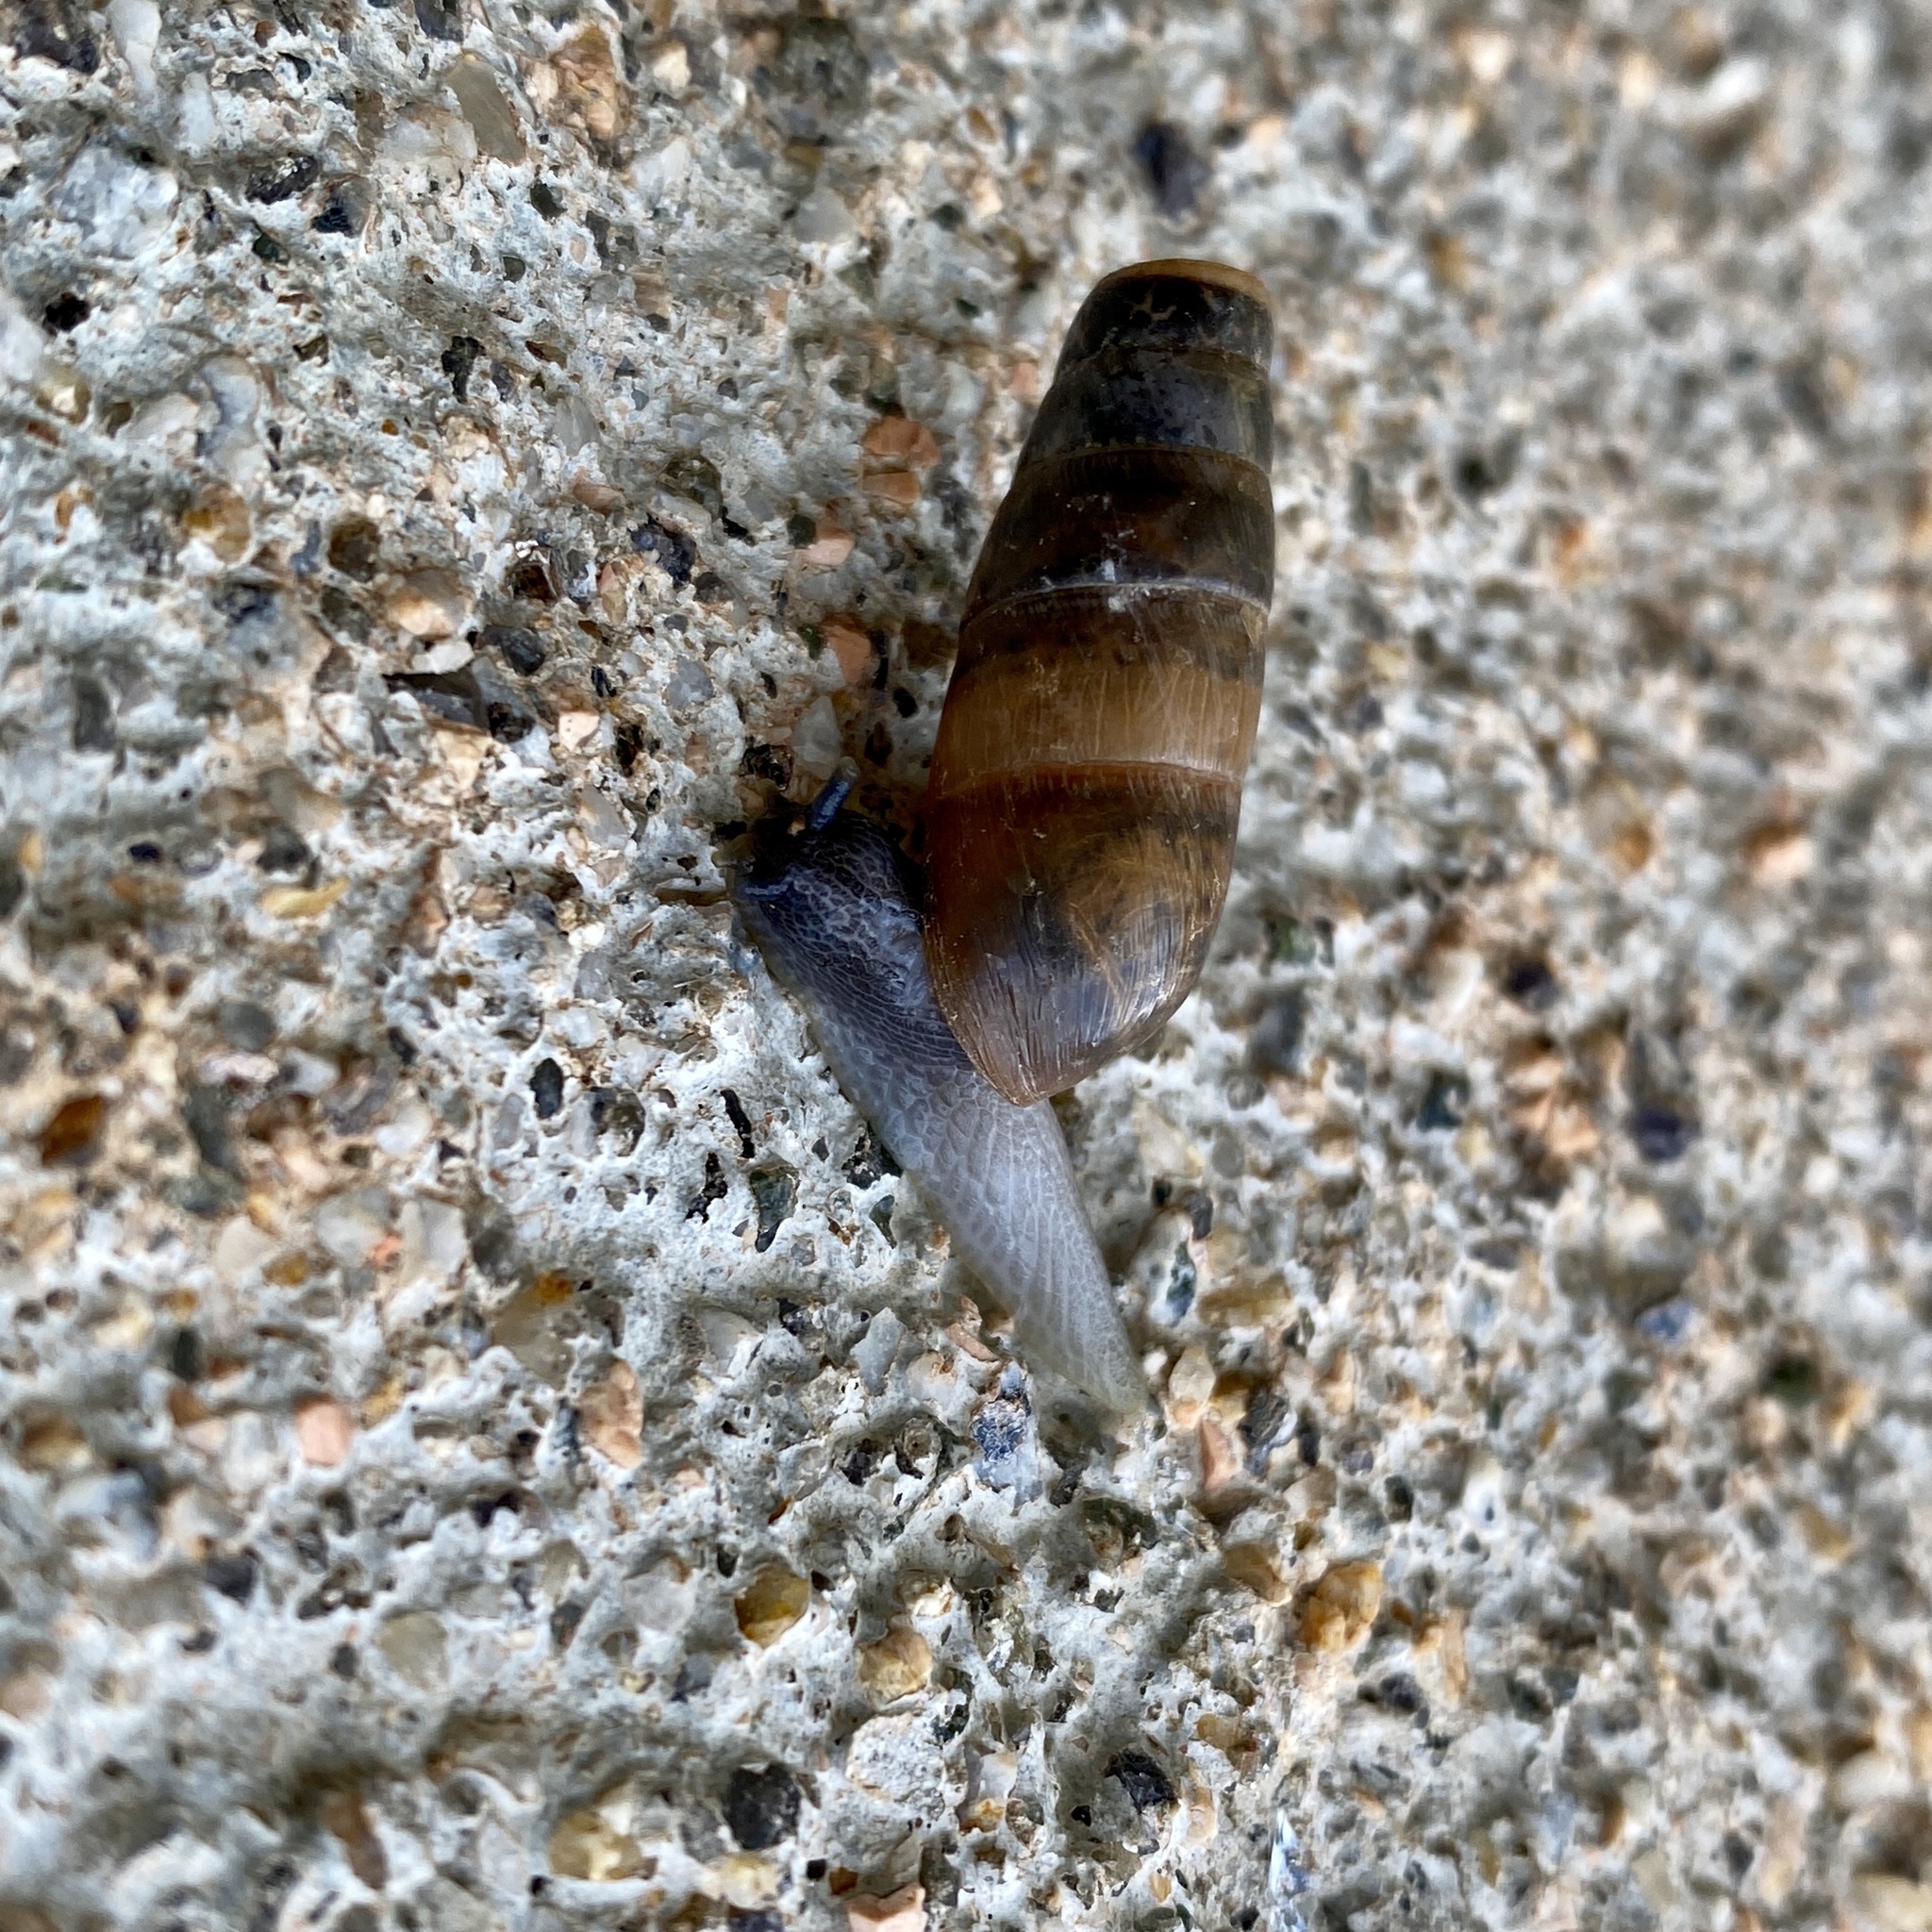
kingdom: Animalia
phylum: Mollusca
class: Gastropoda
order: Stylommatophora
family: Achatinidae
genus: Rumina
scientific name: Rumina decollata
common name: Decollate snail
